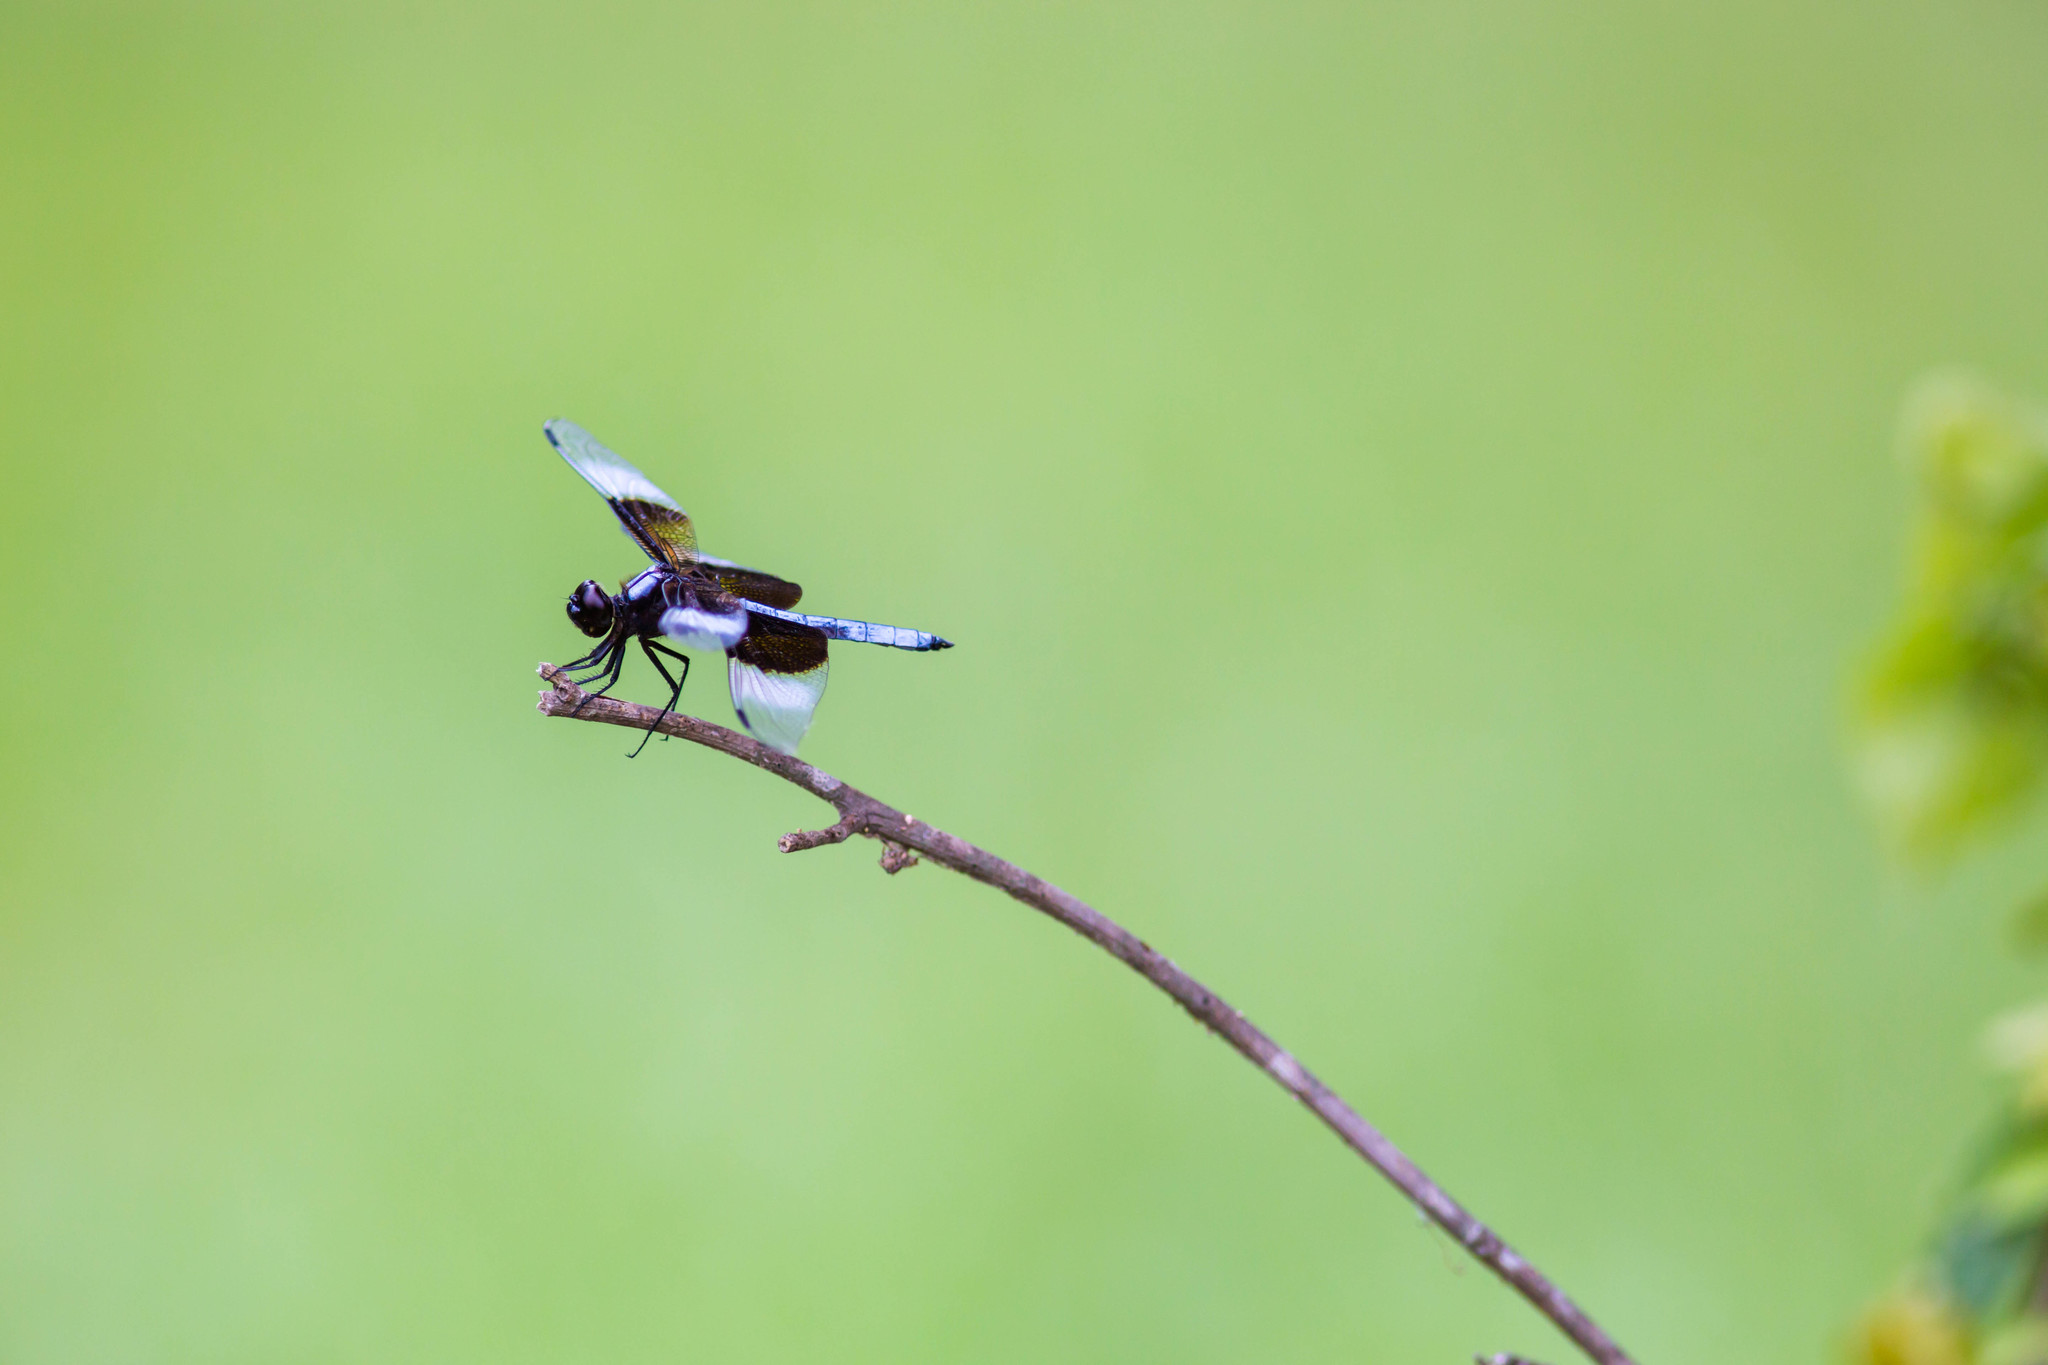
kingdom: Animalia
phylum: Arthropoda
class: Insecta
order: Odonata
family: Libellulidae
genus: Libellula
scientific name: Libellula luctuosa
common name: Widow skimmer
